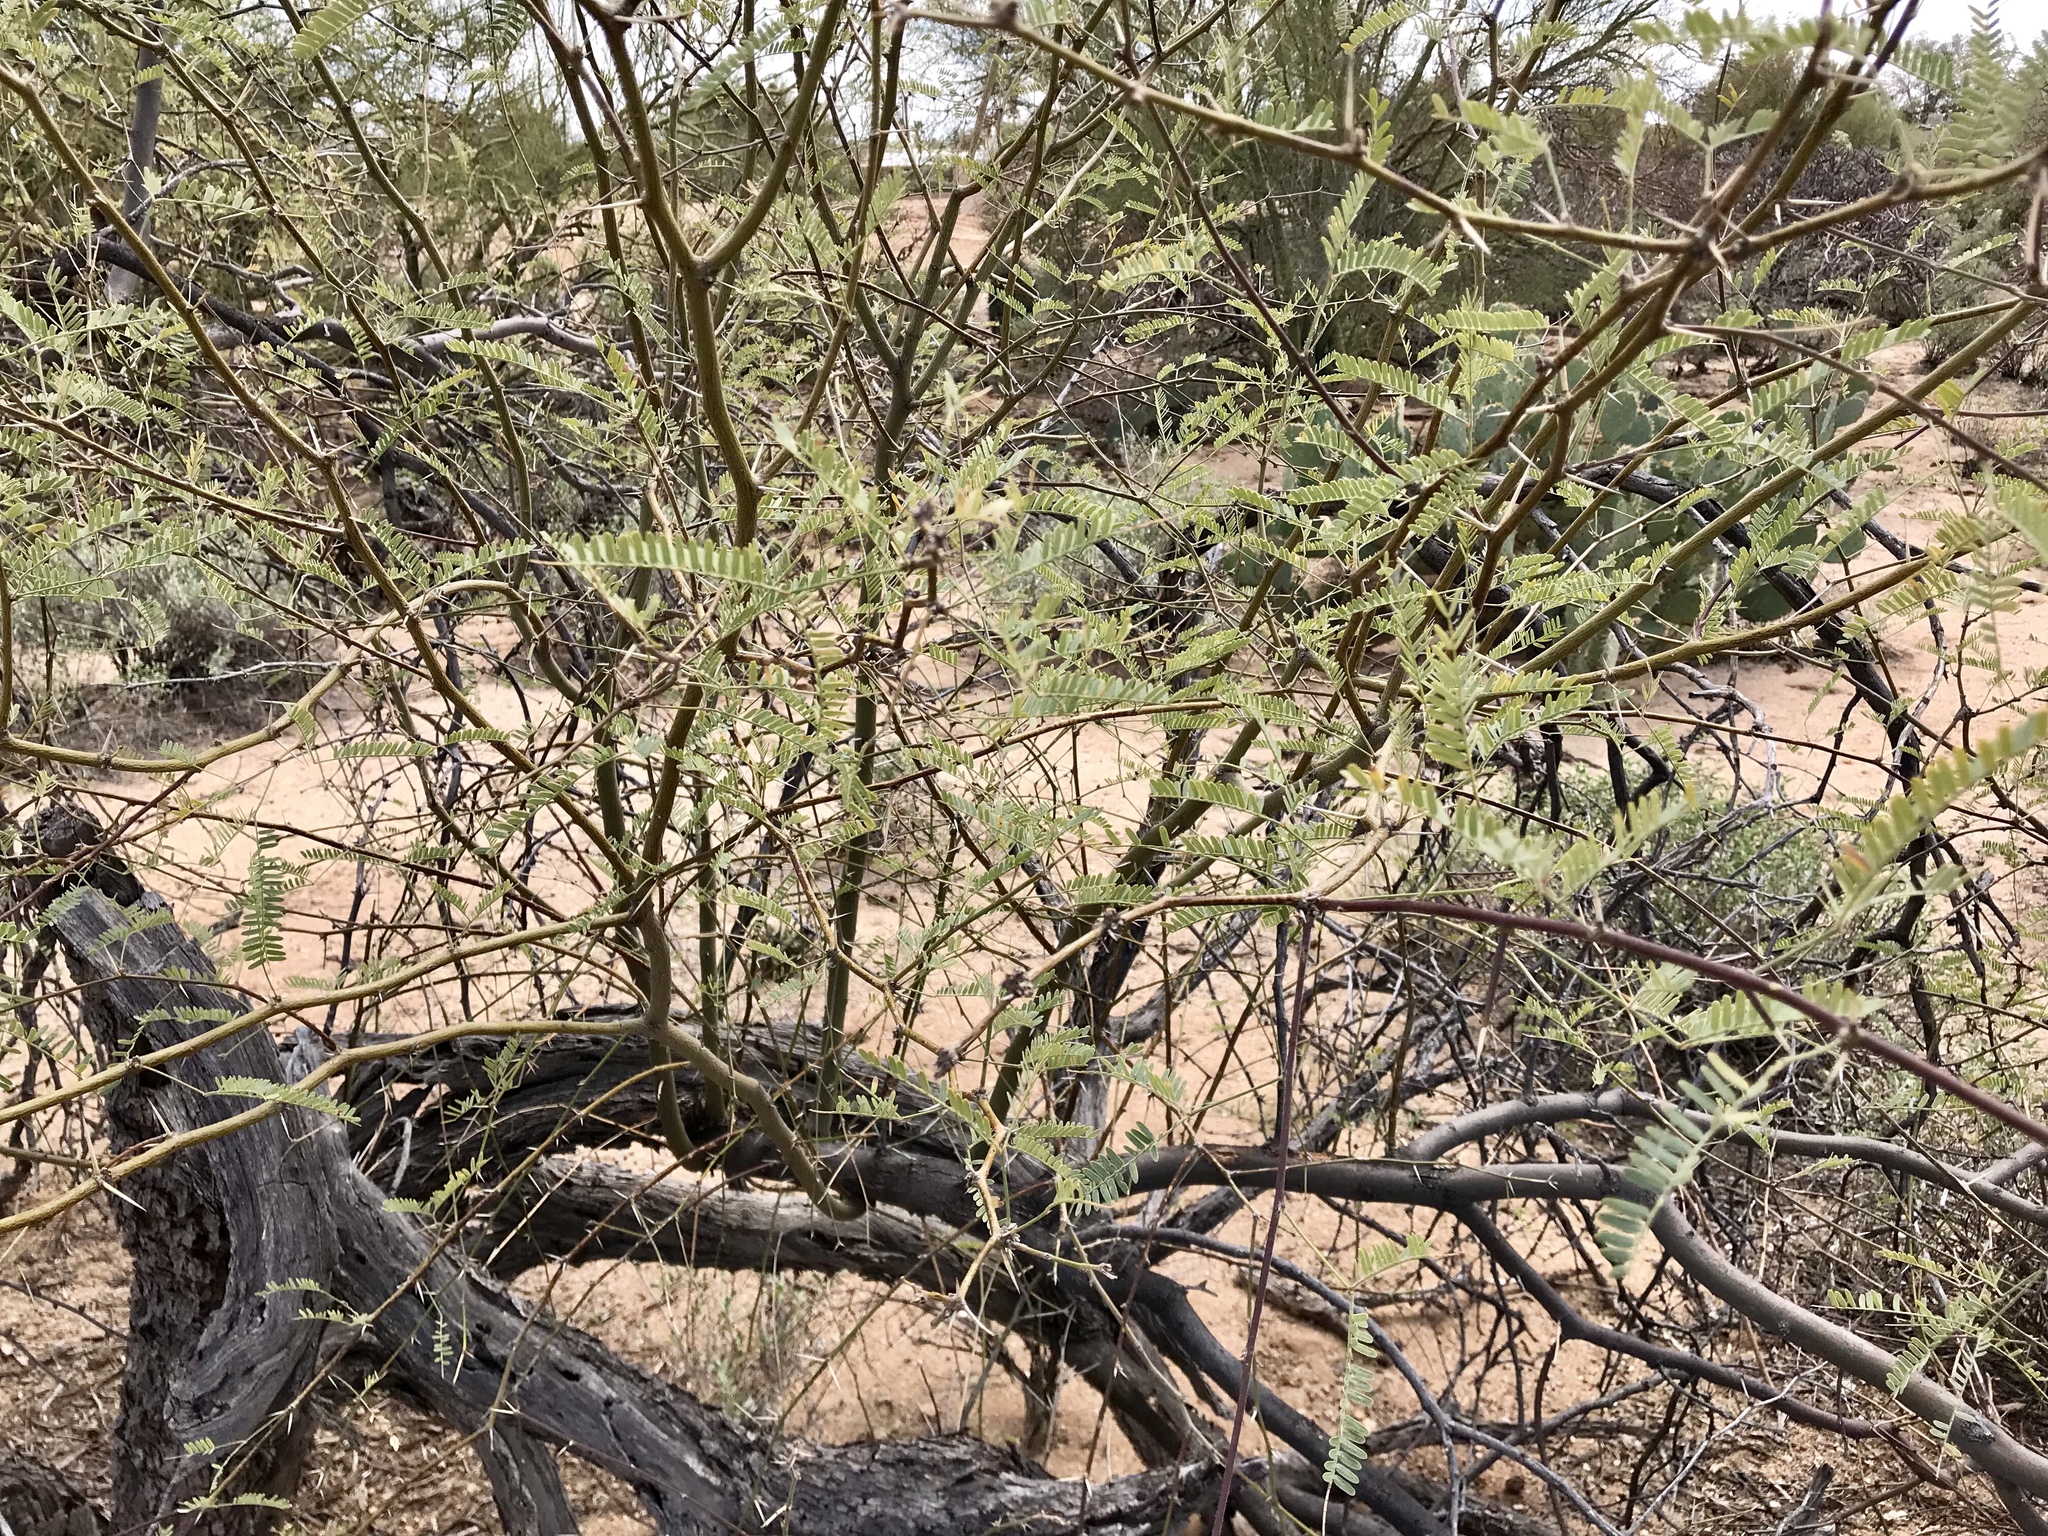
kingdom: Plantae
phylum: Tracheophyta
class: Magnoliopsida
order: Fabales
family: Fabaceae
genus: Prosopis
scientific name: Prosopis velutina
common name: Velvet mesquite
